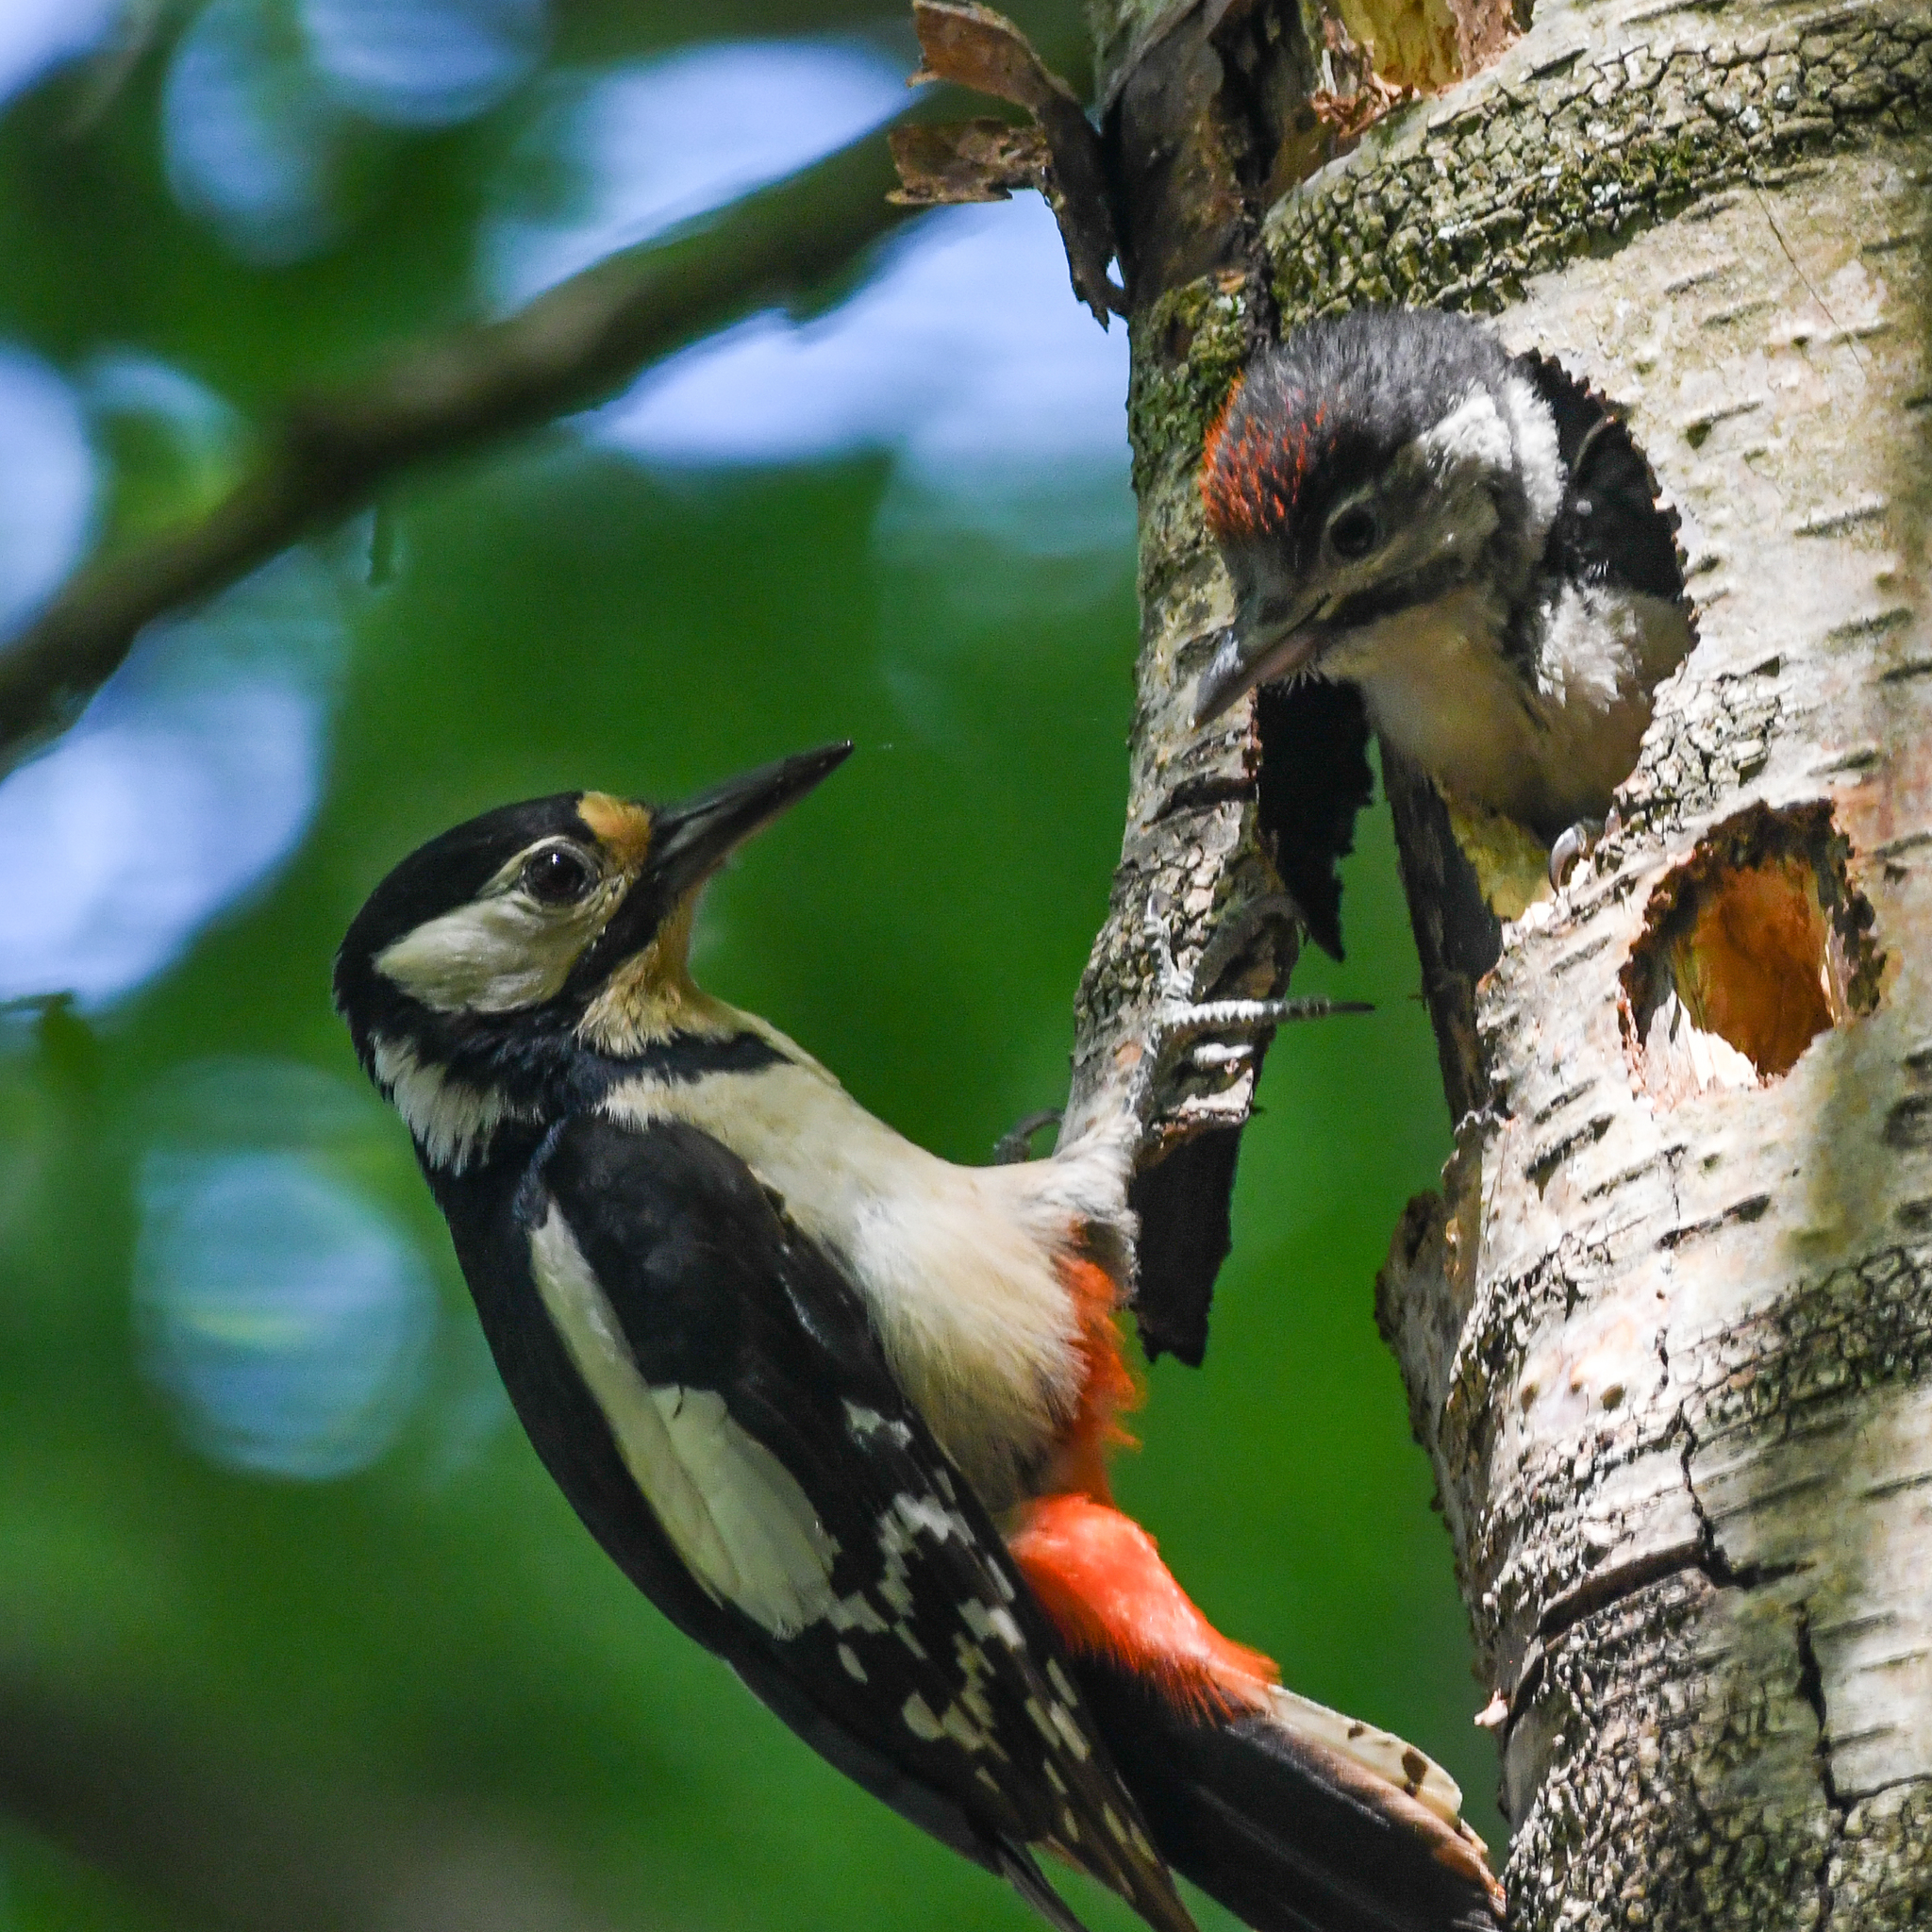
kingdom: Animalia
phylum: Chordata
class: Aves
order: Piciformes
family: Picidae
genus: Dendrocopos
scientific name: Dendrocopos major
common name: Great spotted woodpecker
